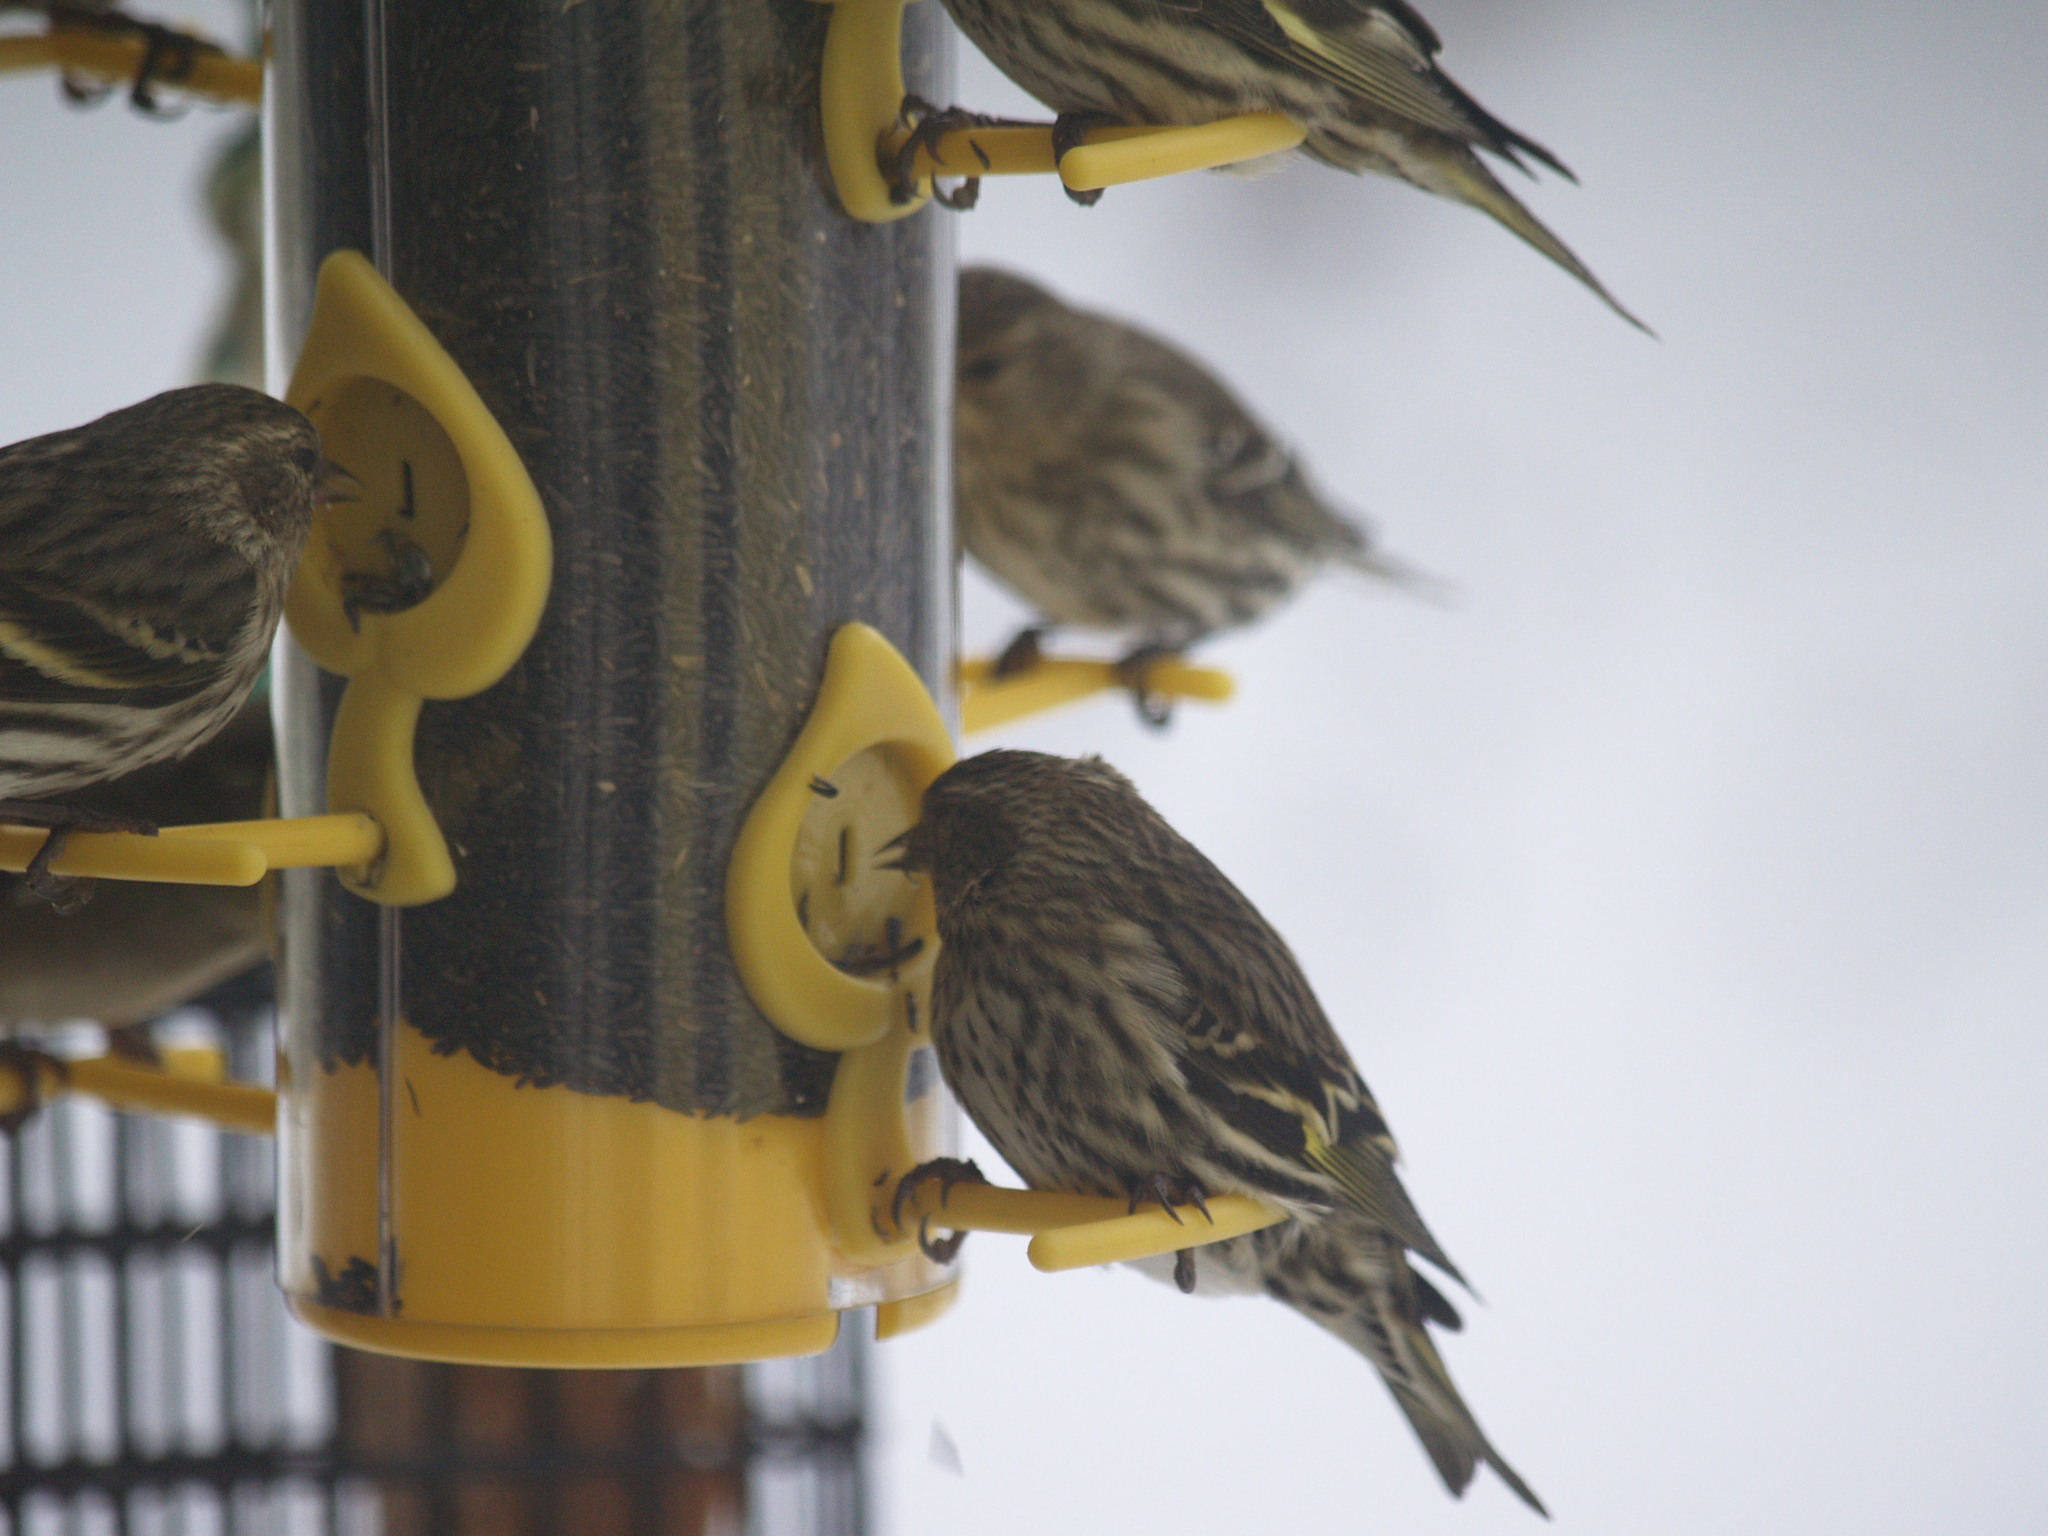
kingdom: Animalia
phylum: Chordata
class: Aves
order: Passeriformes
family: Fringillidae
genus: Spinus
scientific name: Spinus pinus
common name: Pine siskin
